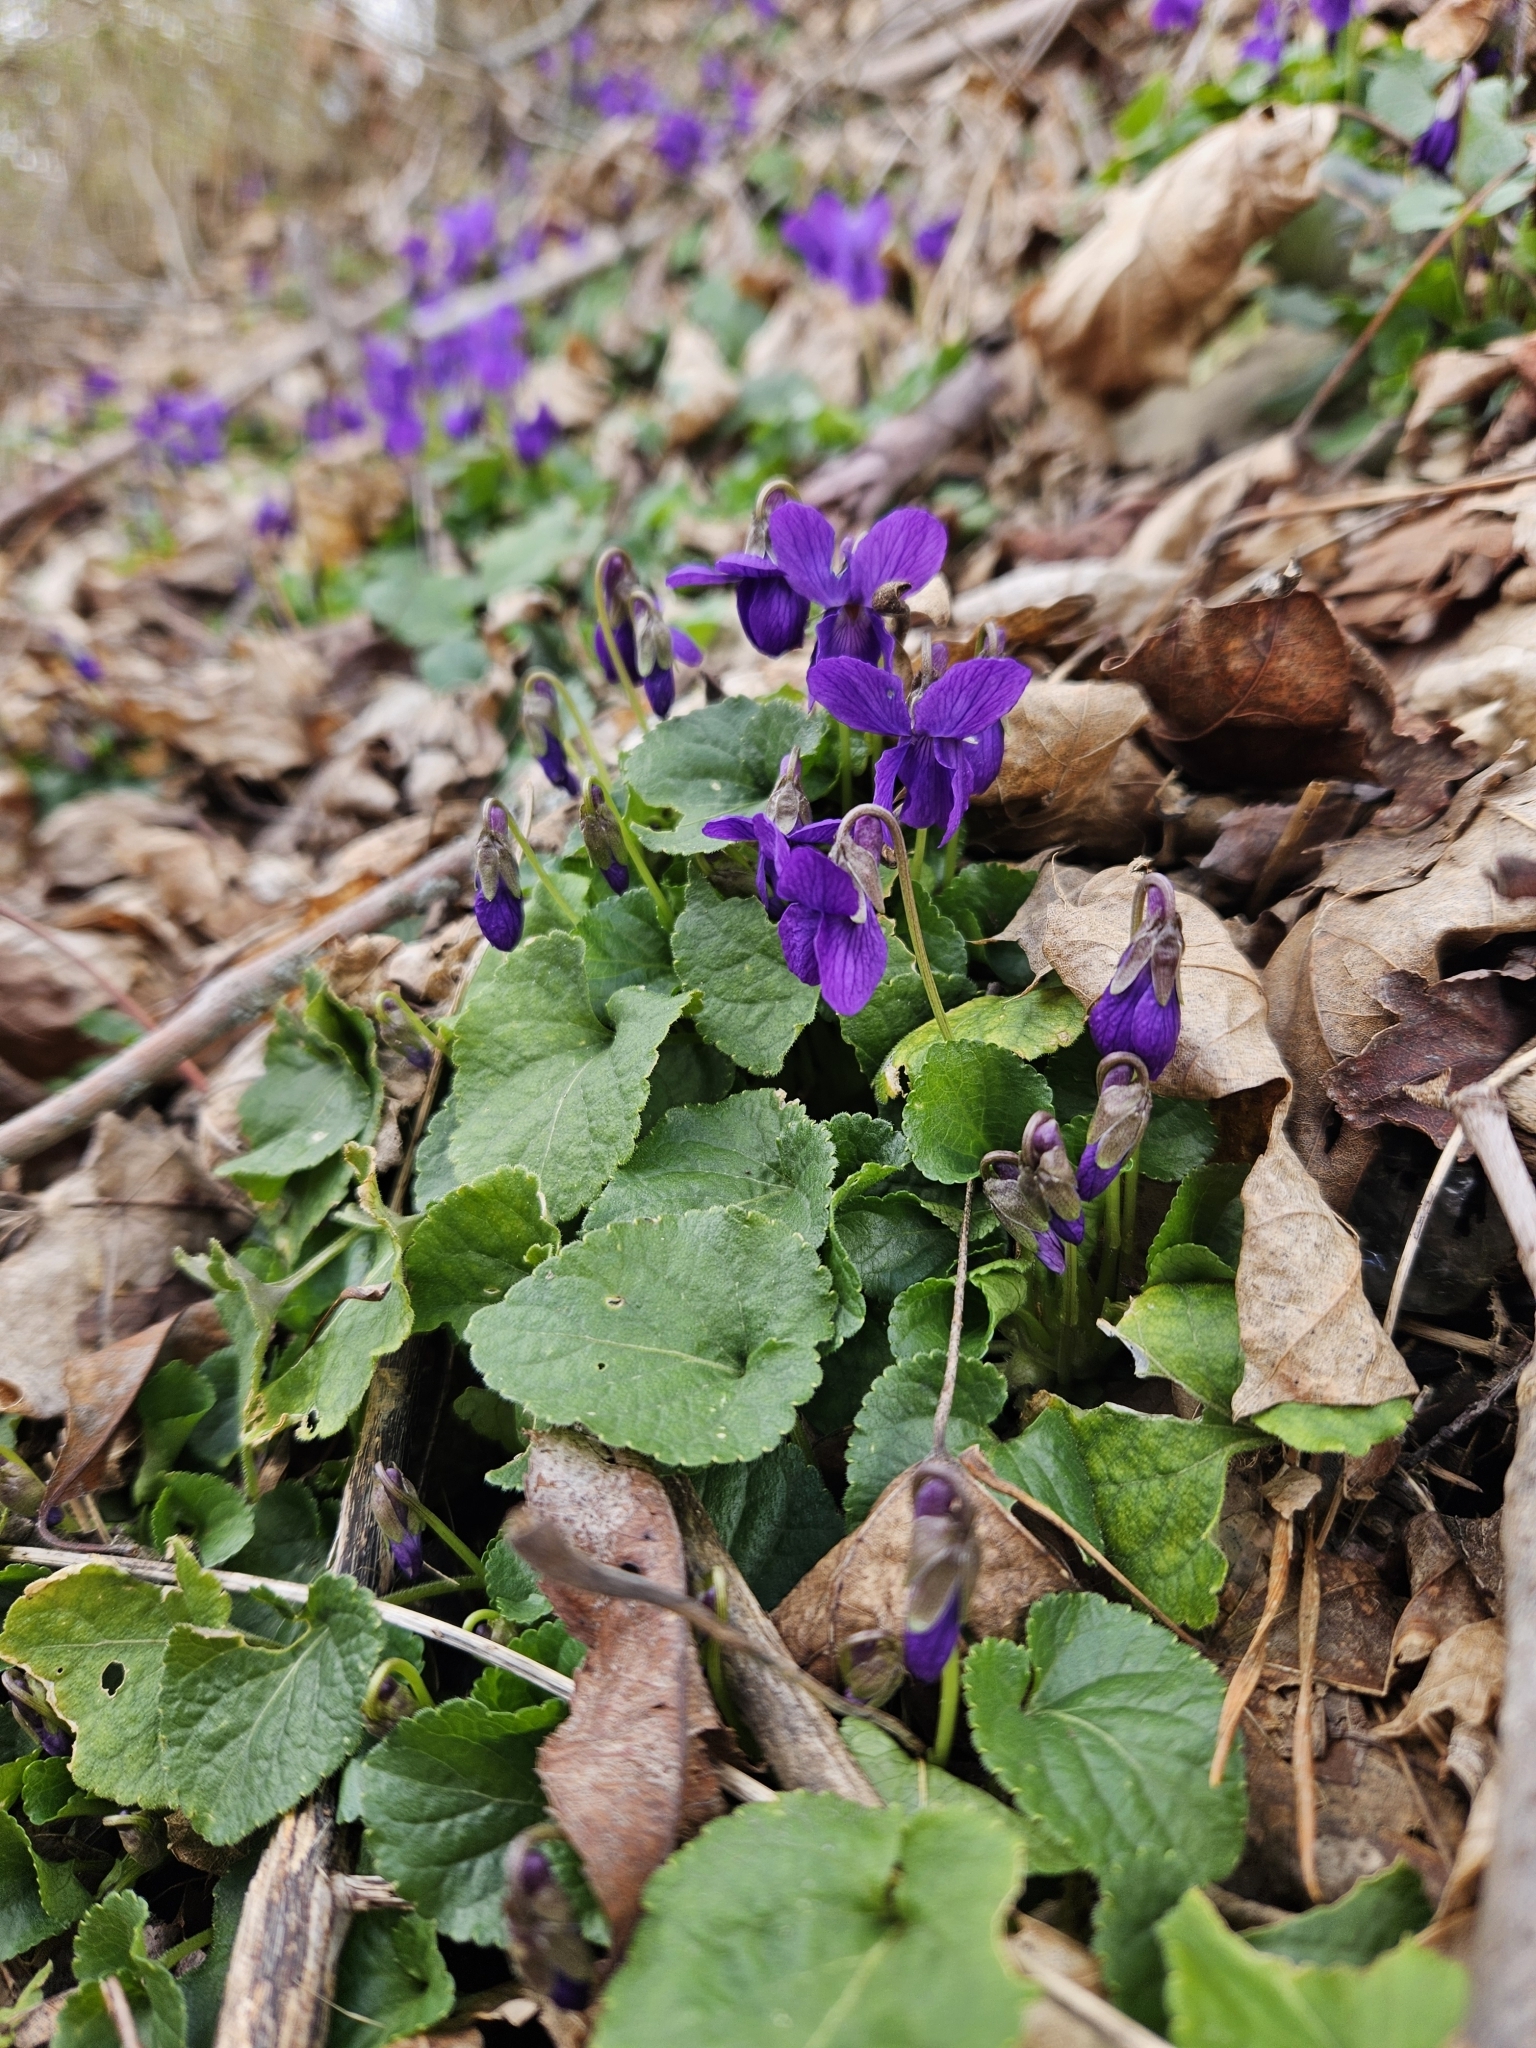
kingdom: Plantae
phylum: Tracheophyta
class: Magnoliopsida
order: Malpighiales
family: Violaceae
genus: Viola
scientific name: Viola odorata
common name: Sweet violet
